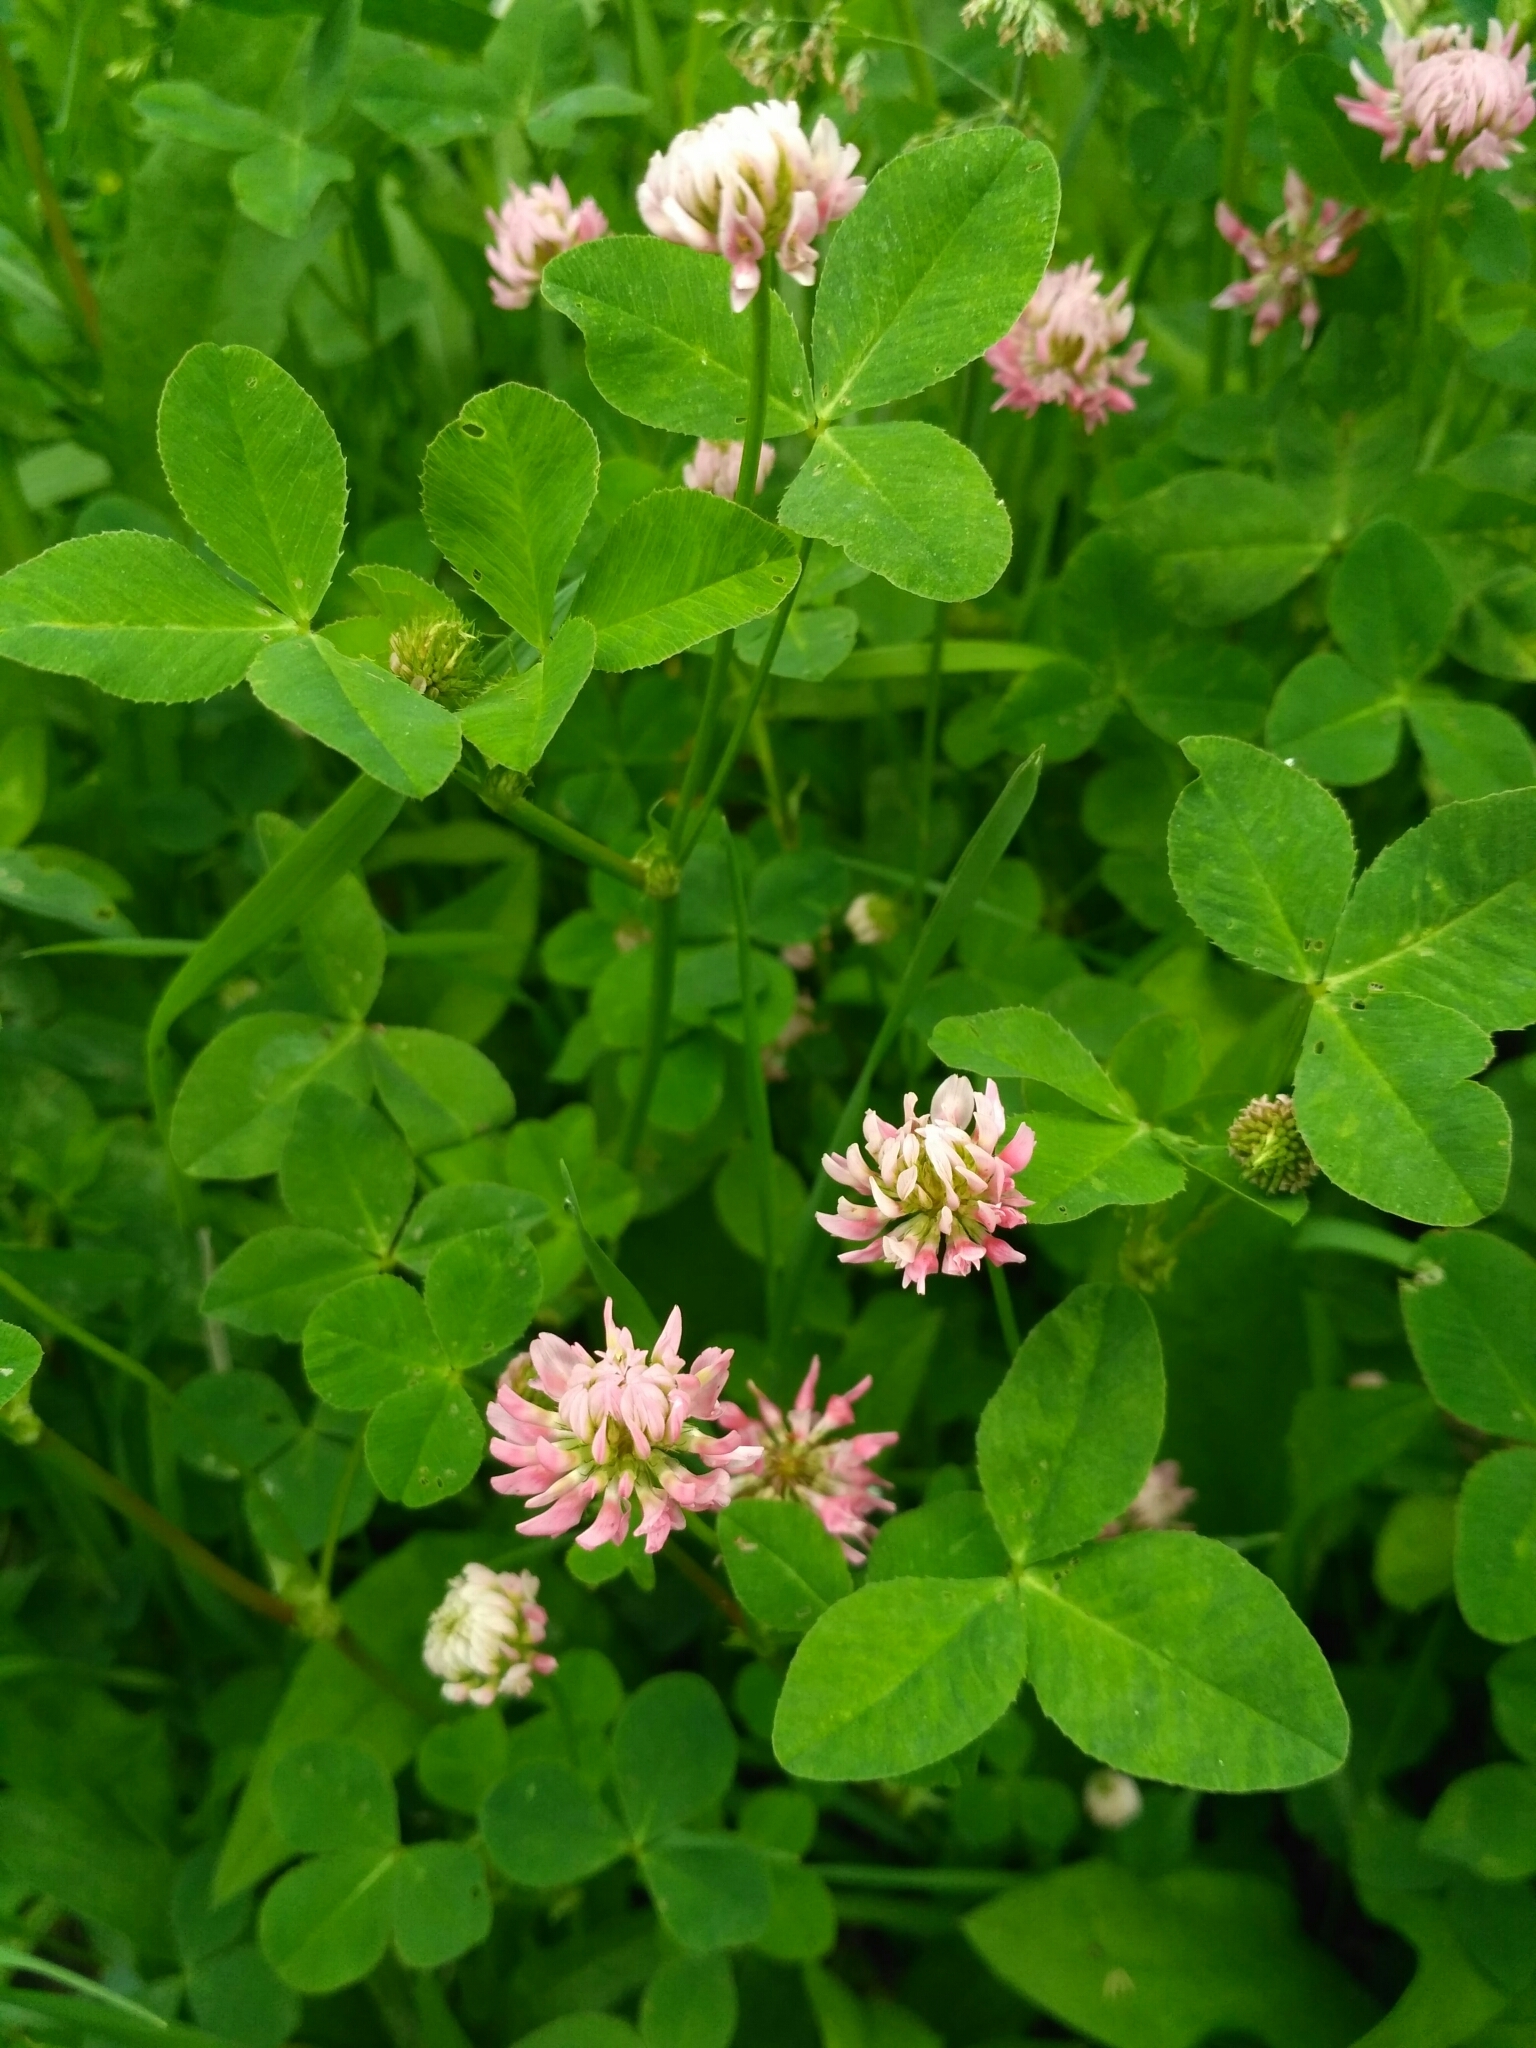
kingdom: Plantae
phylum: Tracheophyta
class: Magnoliopsida
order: Fabales
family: Fabaceae
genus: Trifolium
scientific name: Trifolium hybridum
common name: Alsike clover
